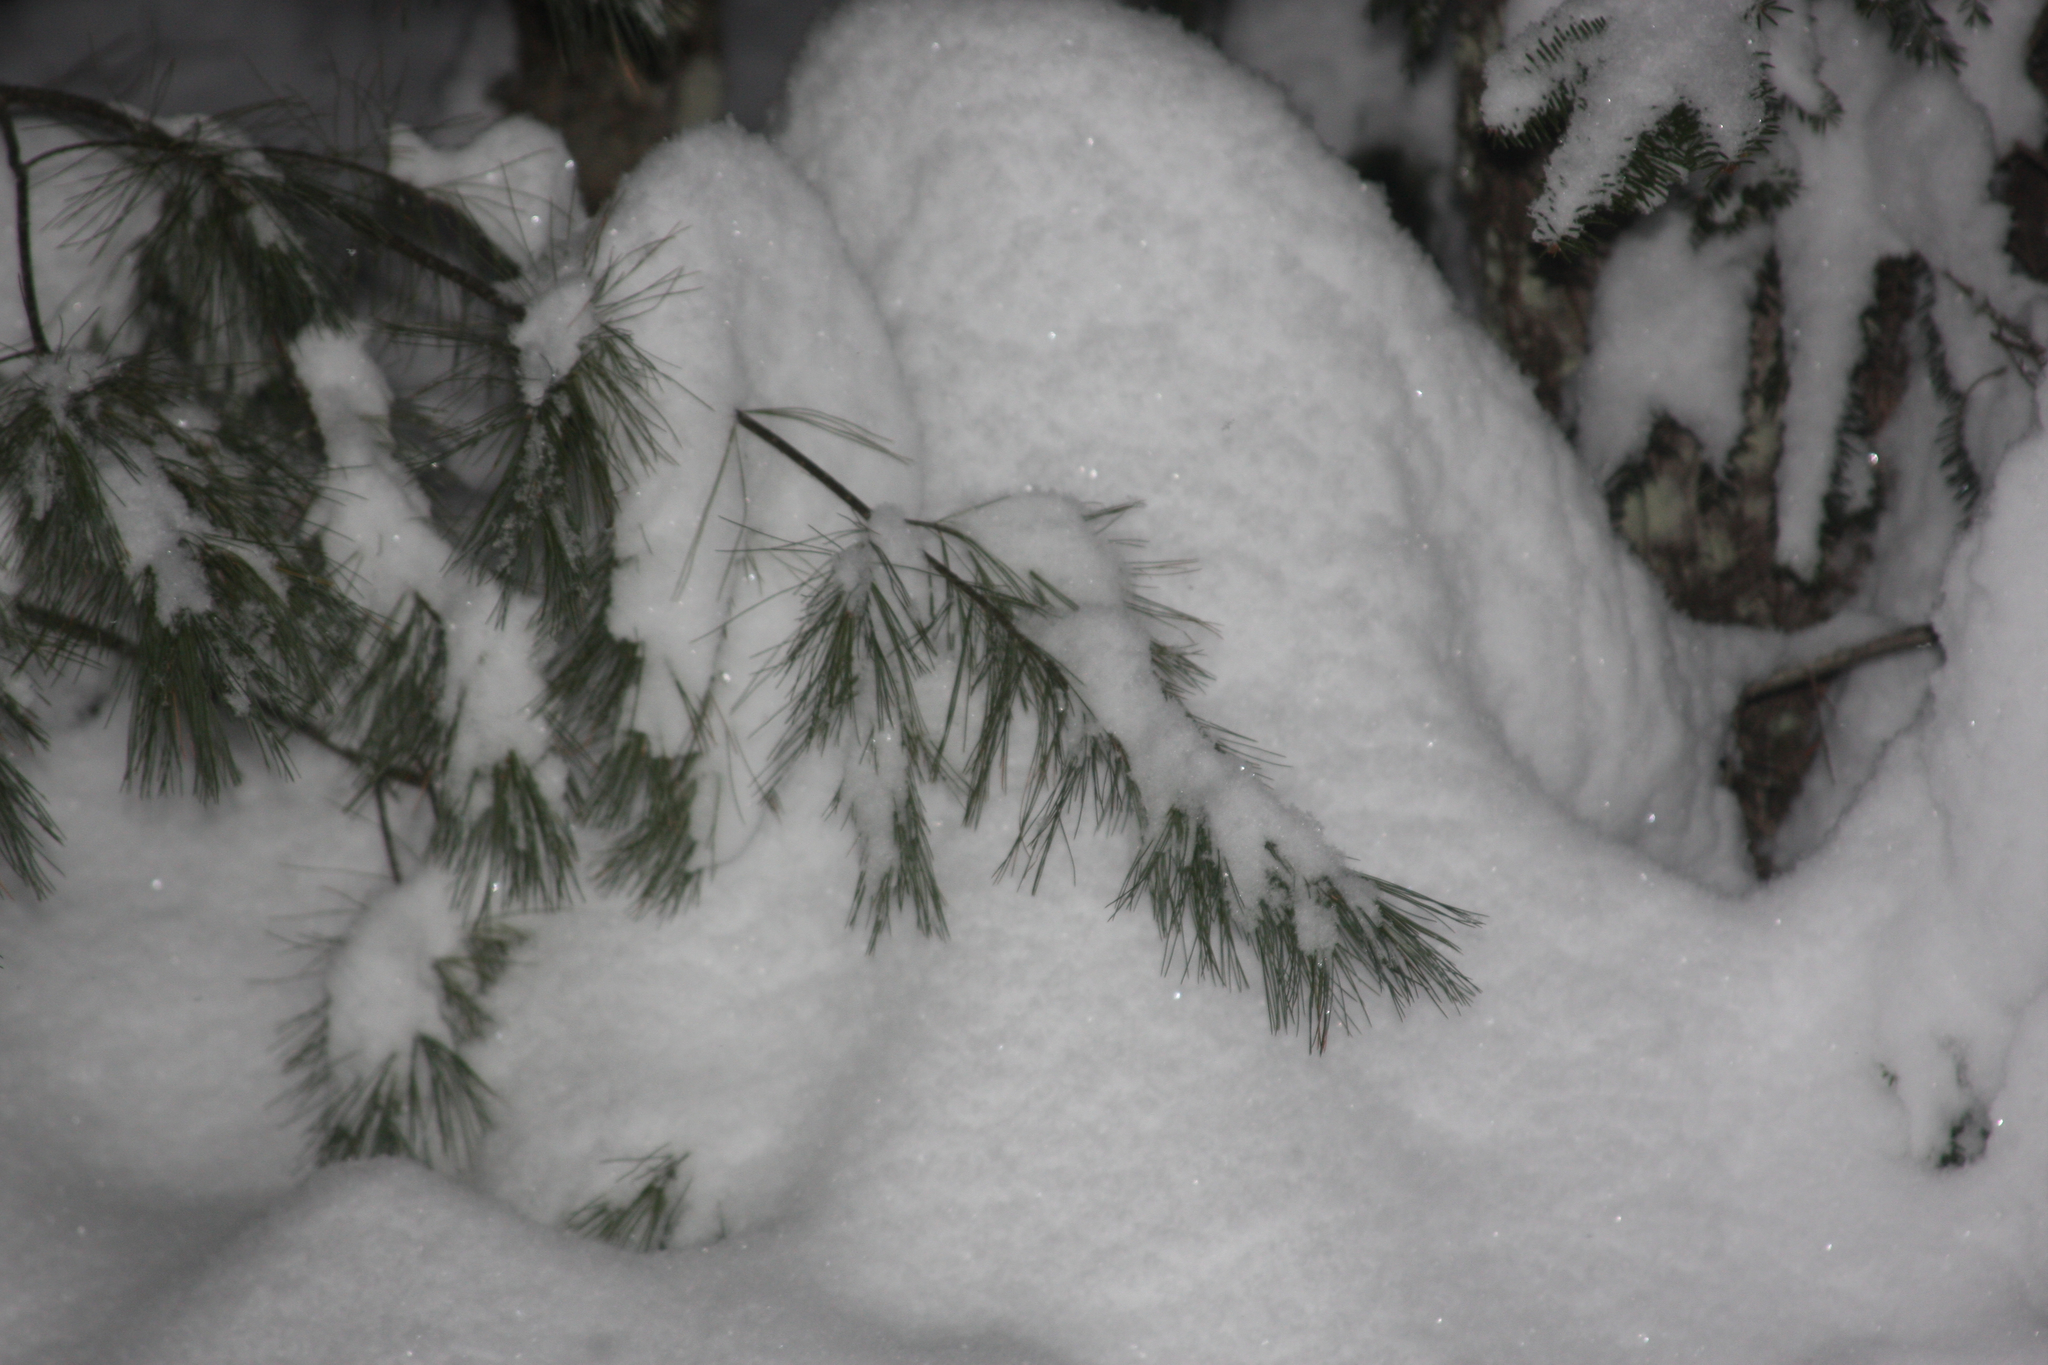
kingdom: Plantae
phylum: Tracheophyta
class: Pinopsida
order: Pinales
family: Pinaceae
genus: Pinus
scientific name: Pinus strobus
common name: Weymouth pine
